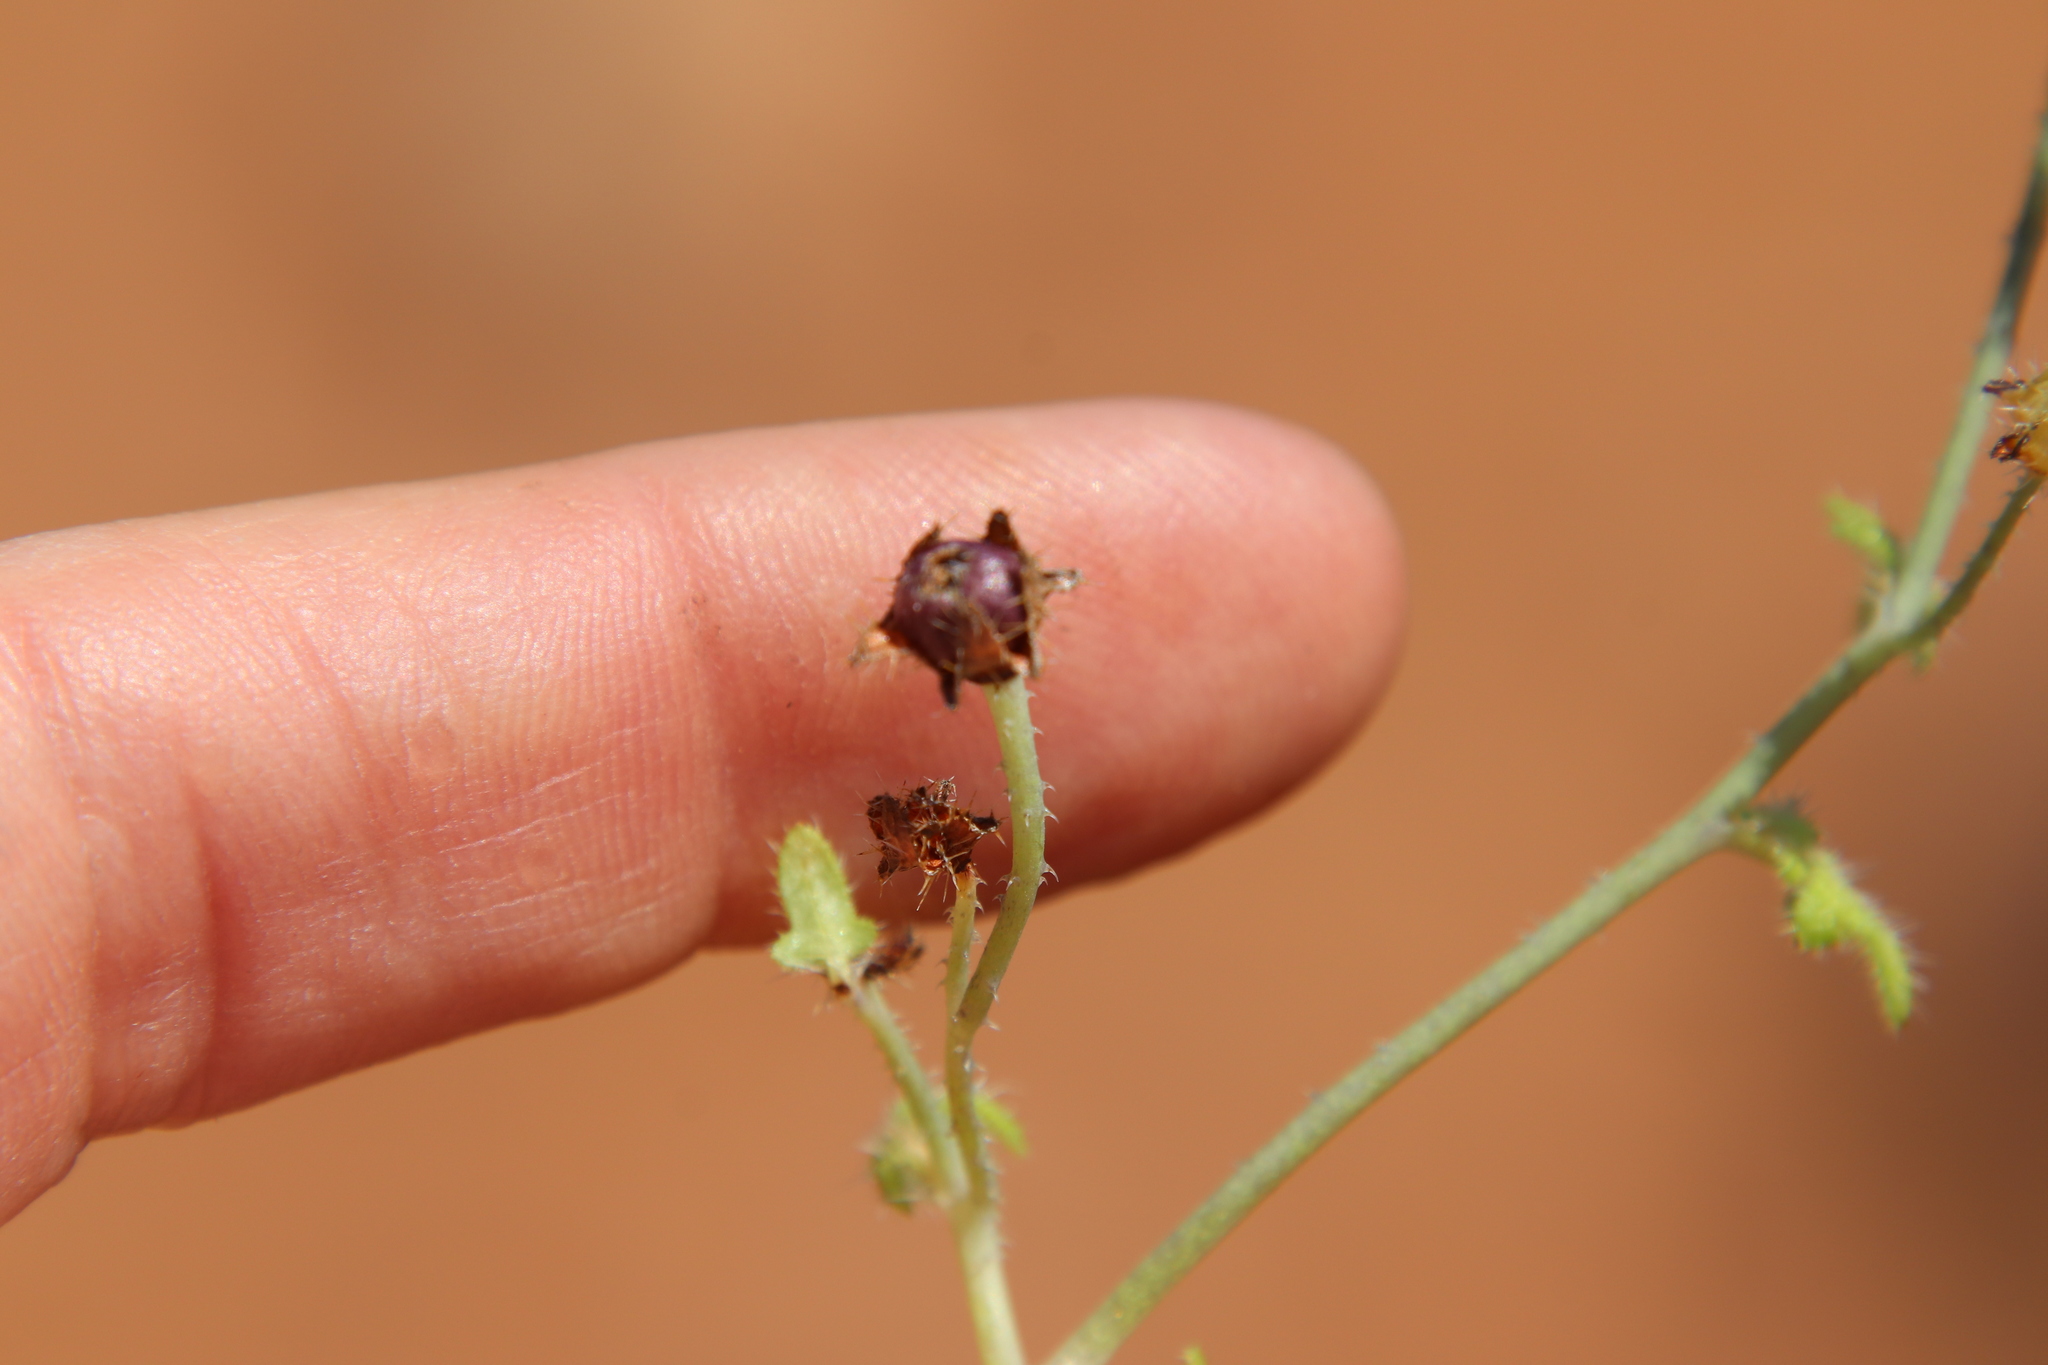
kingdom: Plantae
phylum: Tracheophyta
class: Magnoliopsida
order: Boraginales
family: Hydrophyllaceae
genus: Pholistoma
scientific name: Pholistoma racemosum
